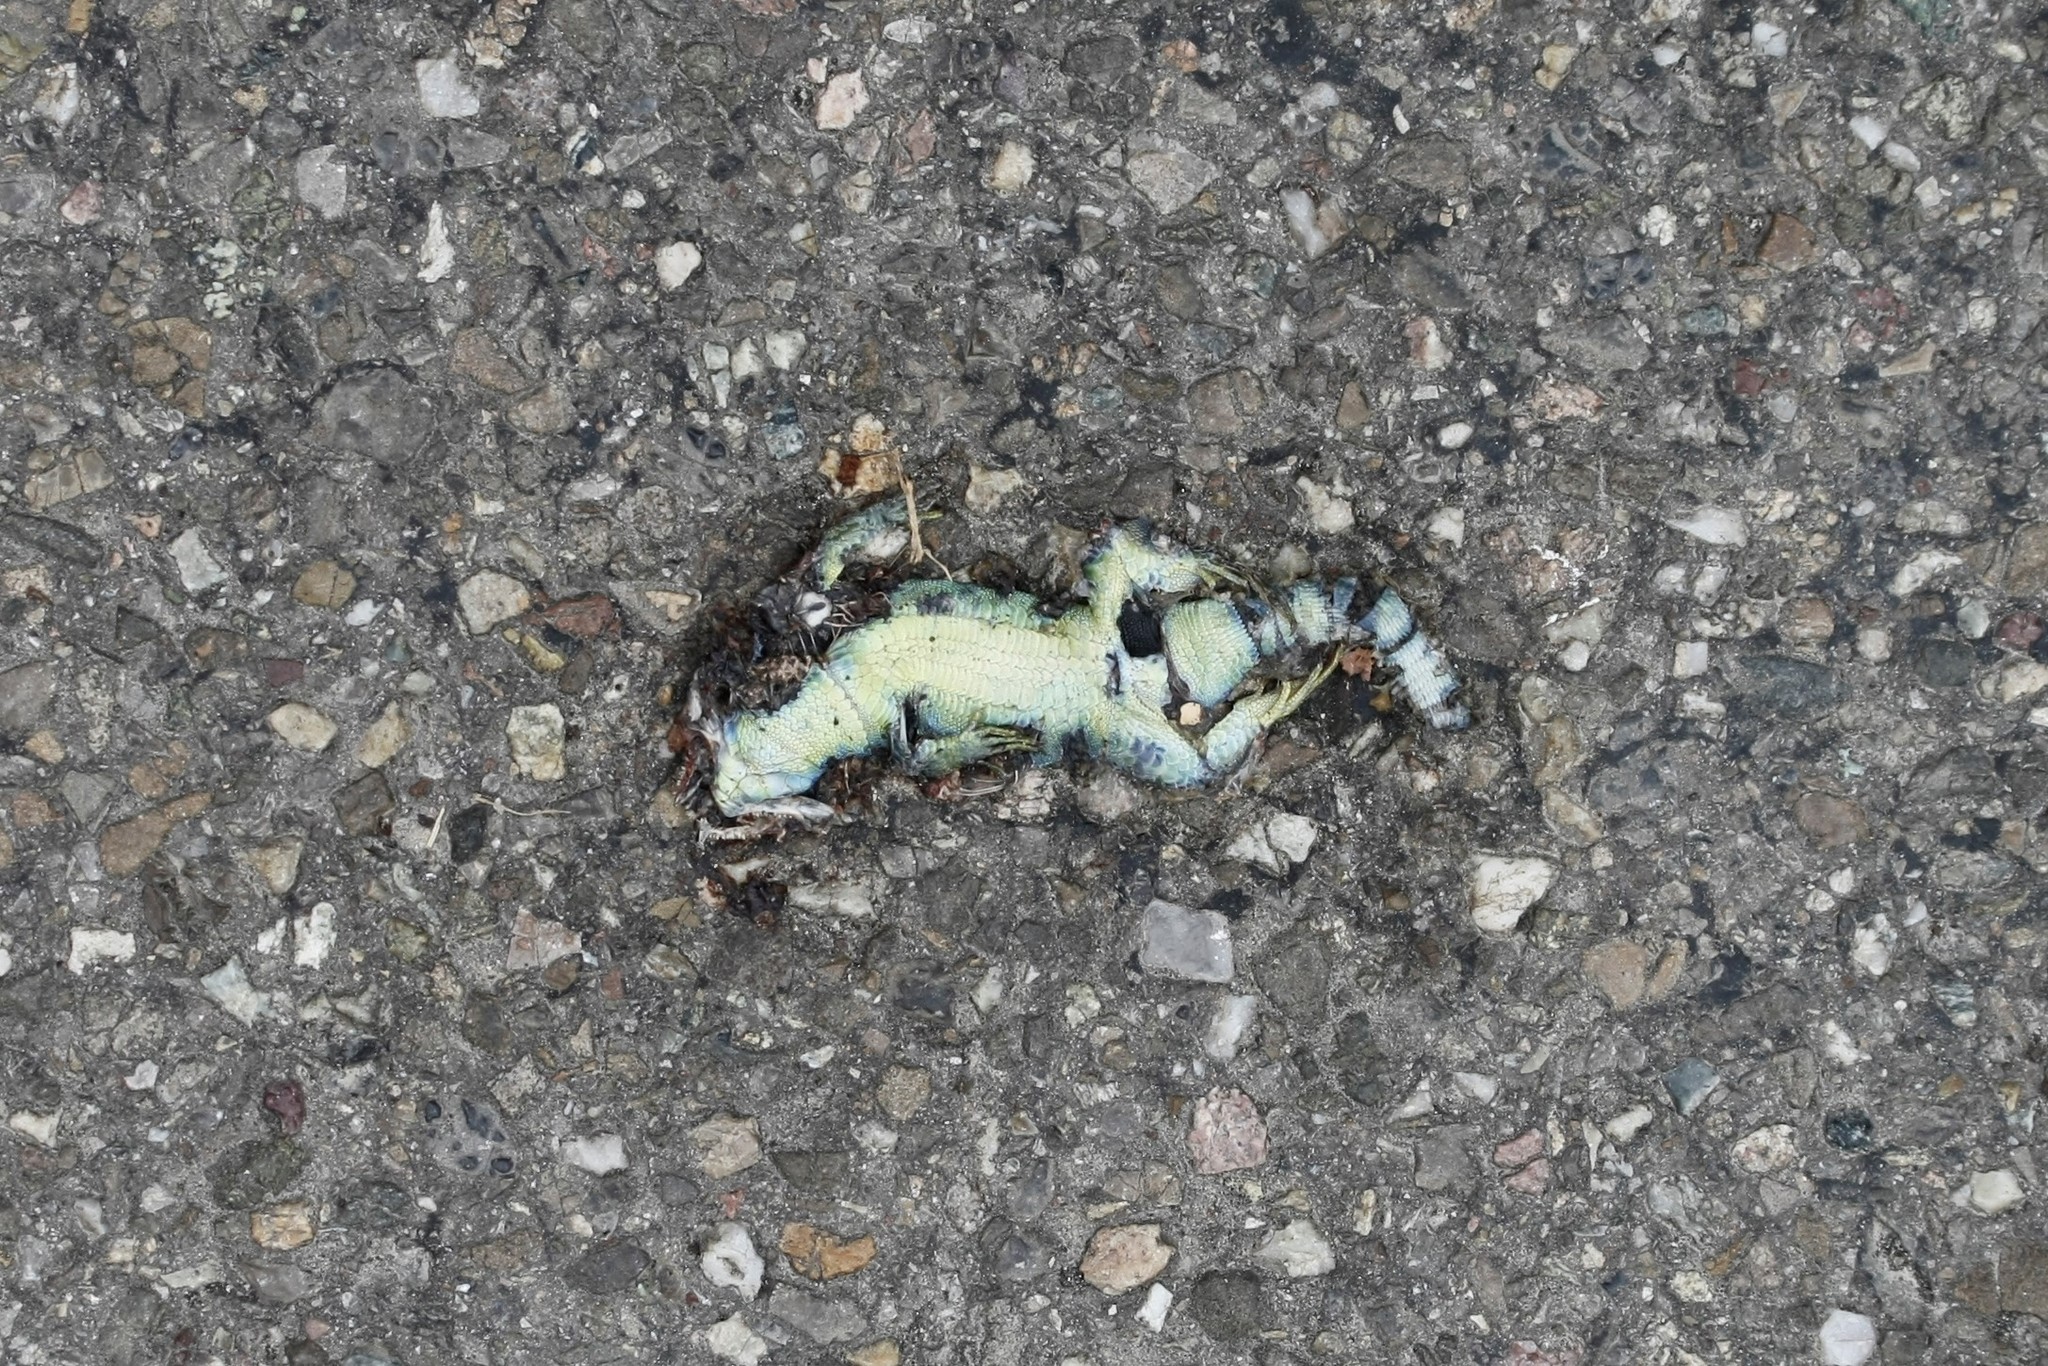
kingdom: Animalia
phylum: Chordata
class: Squamata
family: Lacertidae
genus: Lacerta
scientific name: Lacerta agilis
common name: Sand lizard
